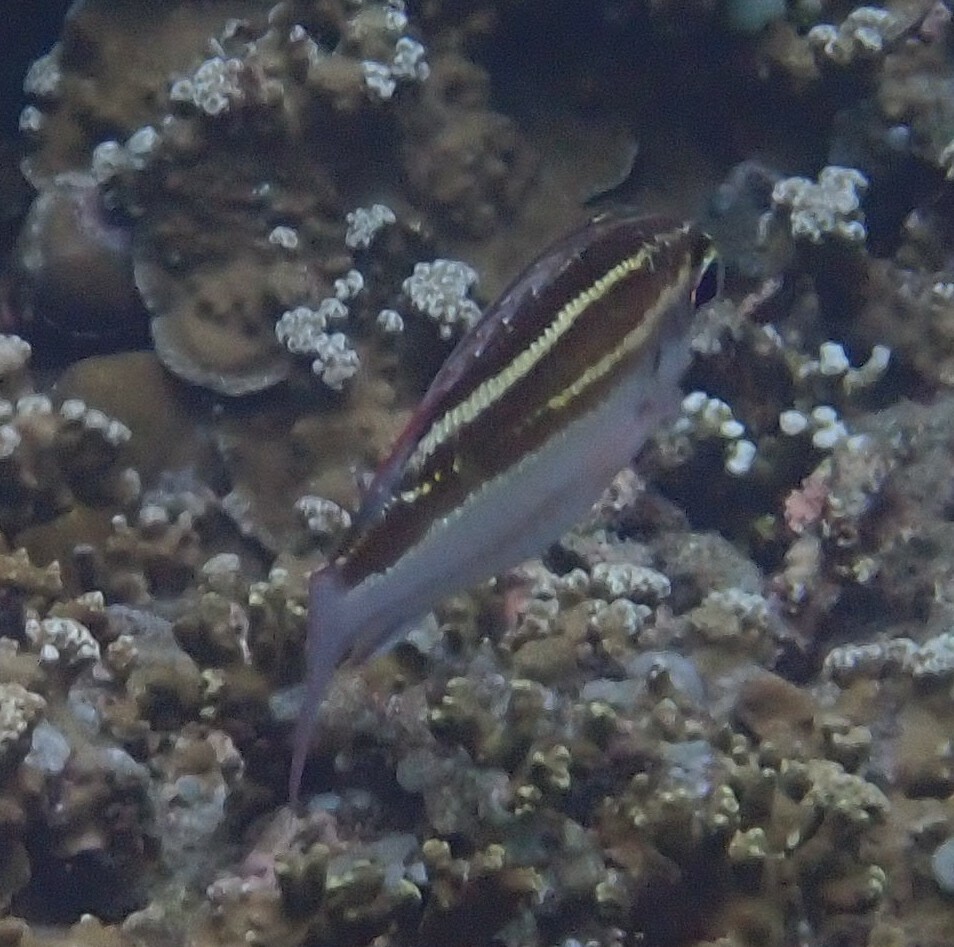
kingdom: Animalia
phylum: Chordata
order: Perciformes
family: Nemipteridae
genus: Scolopsis
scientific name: Scolopsis lineata
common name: Striped monocle bream
